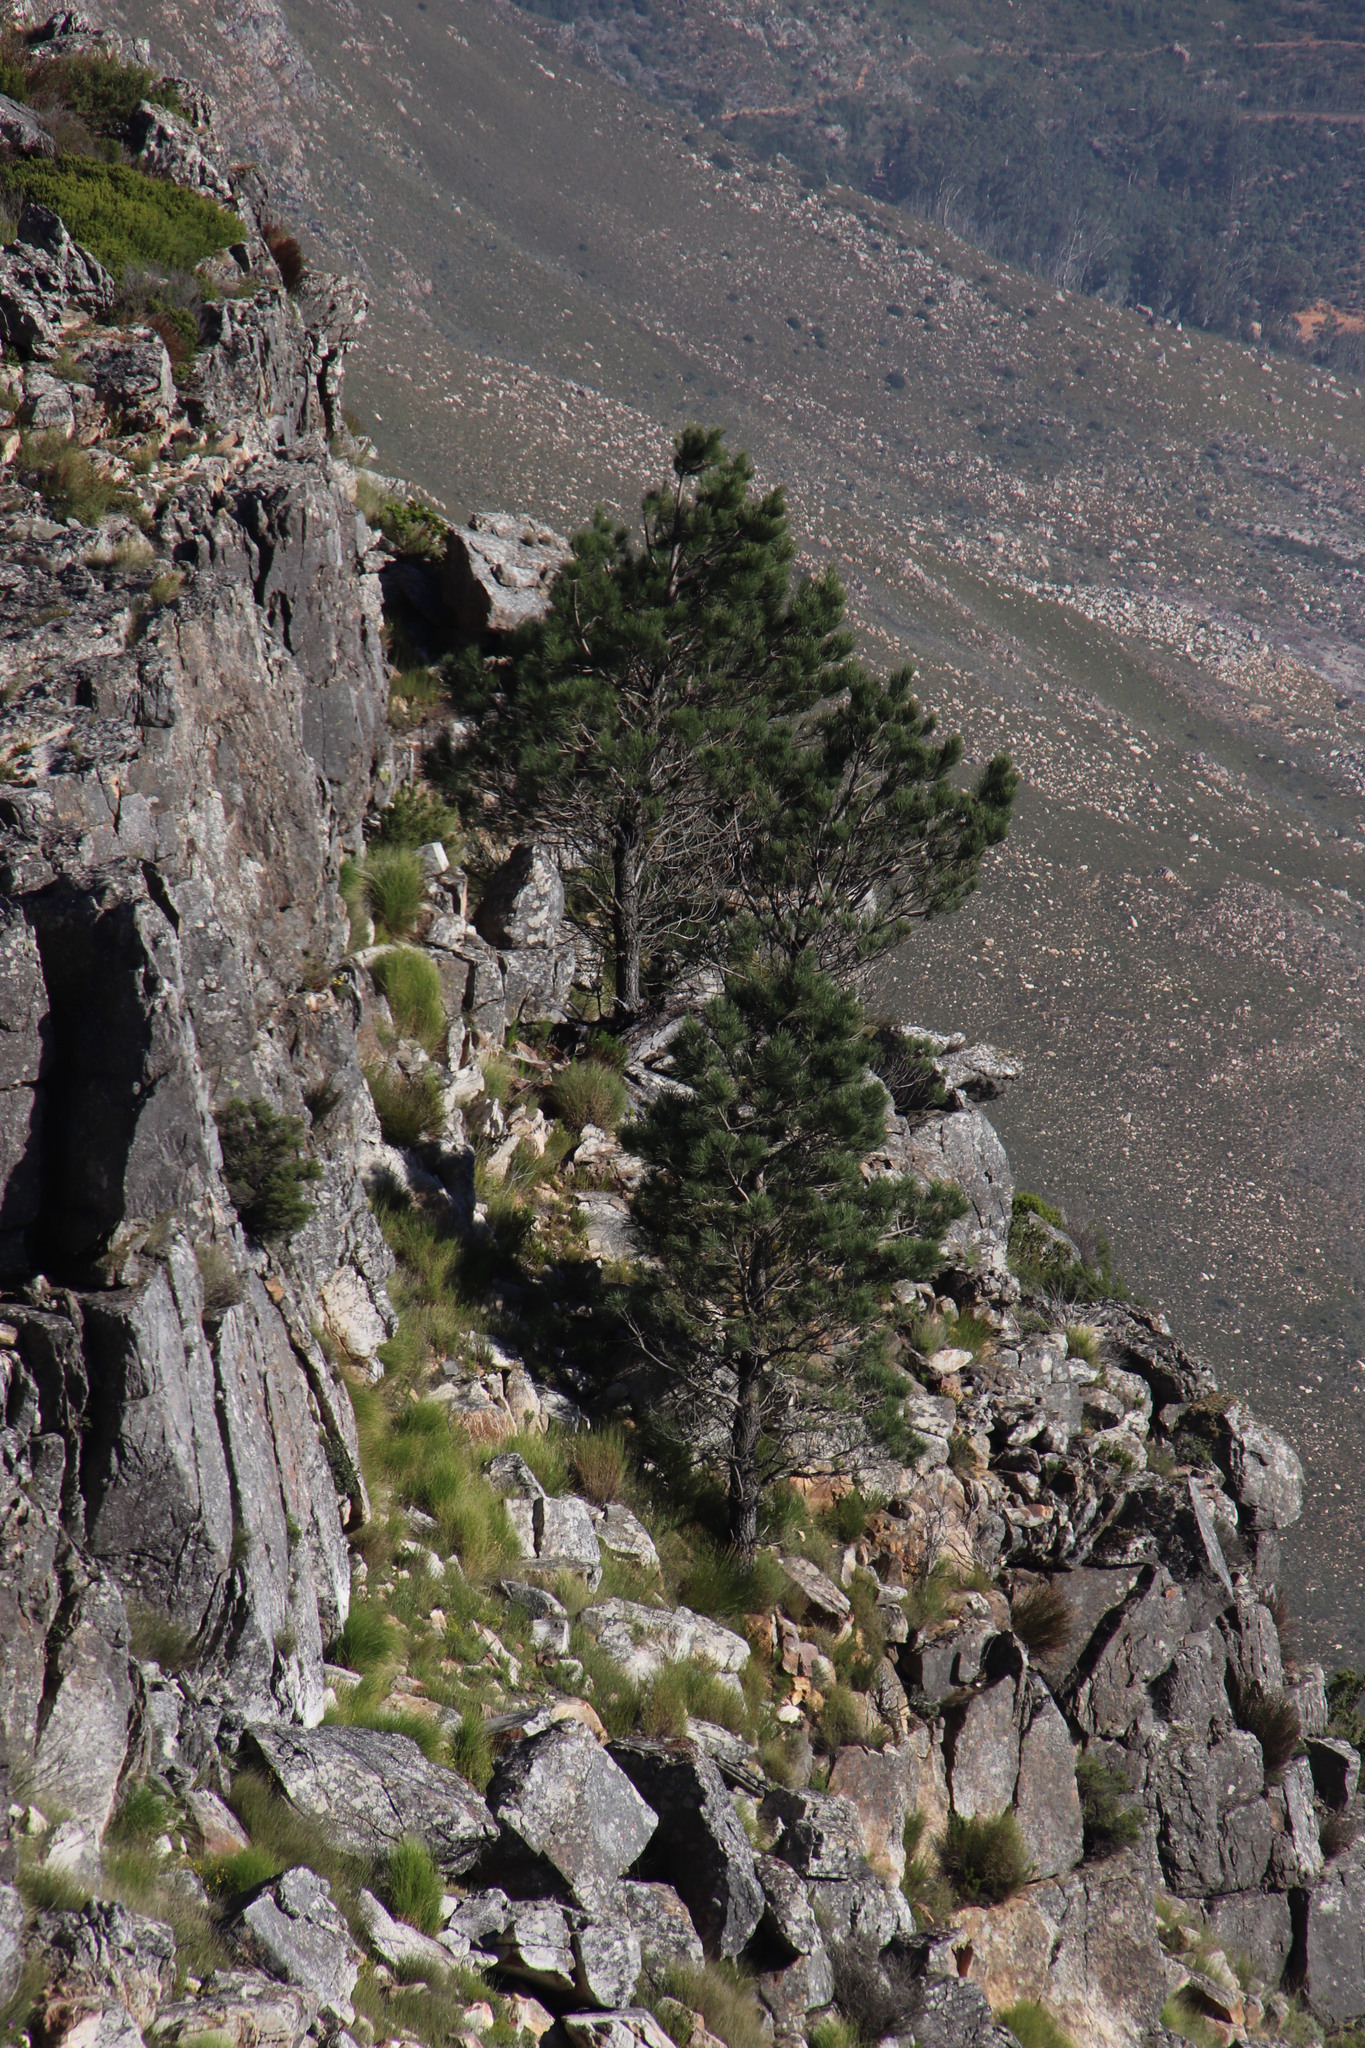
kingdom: Plantae
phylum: Tracheophyta
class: Pinopsida
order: Pinales
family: Pinaceae
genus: Pinus
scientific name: Pinus radiata
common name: Monterey pine
